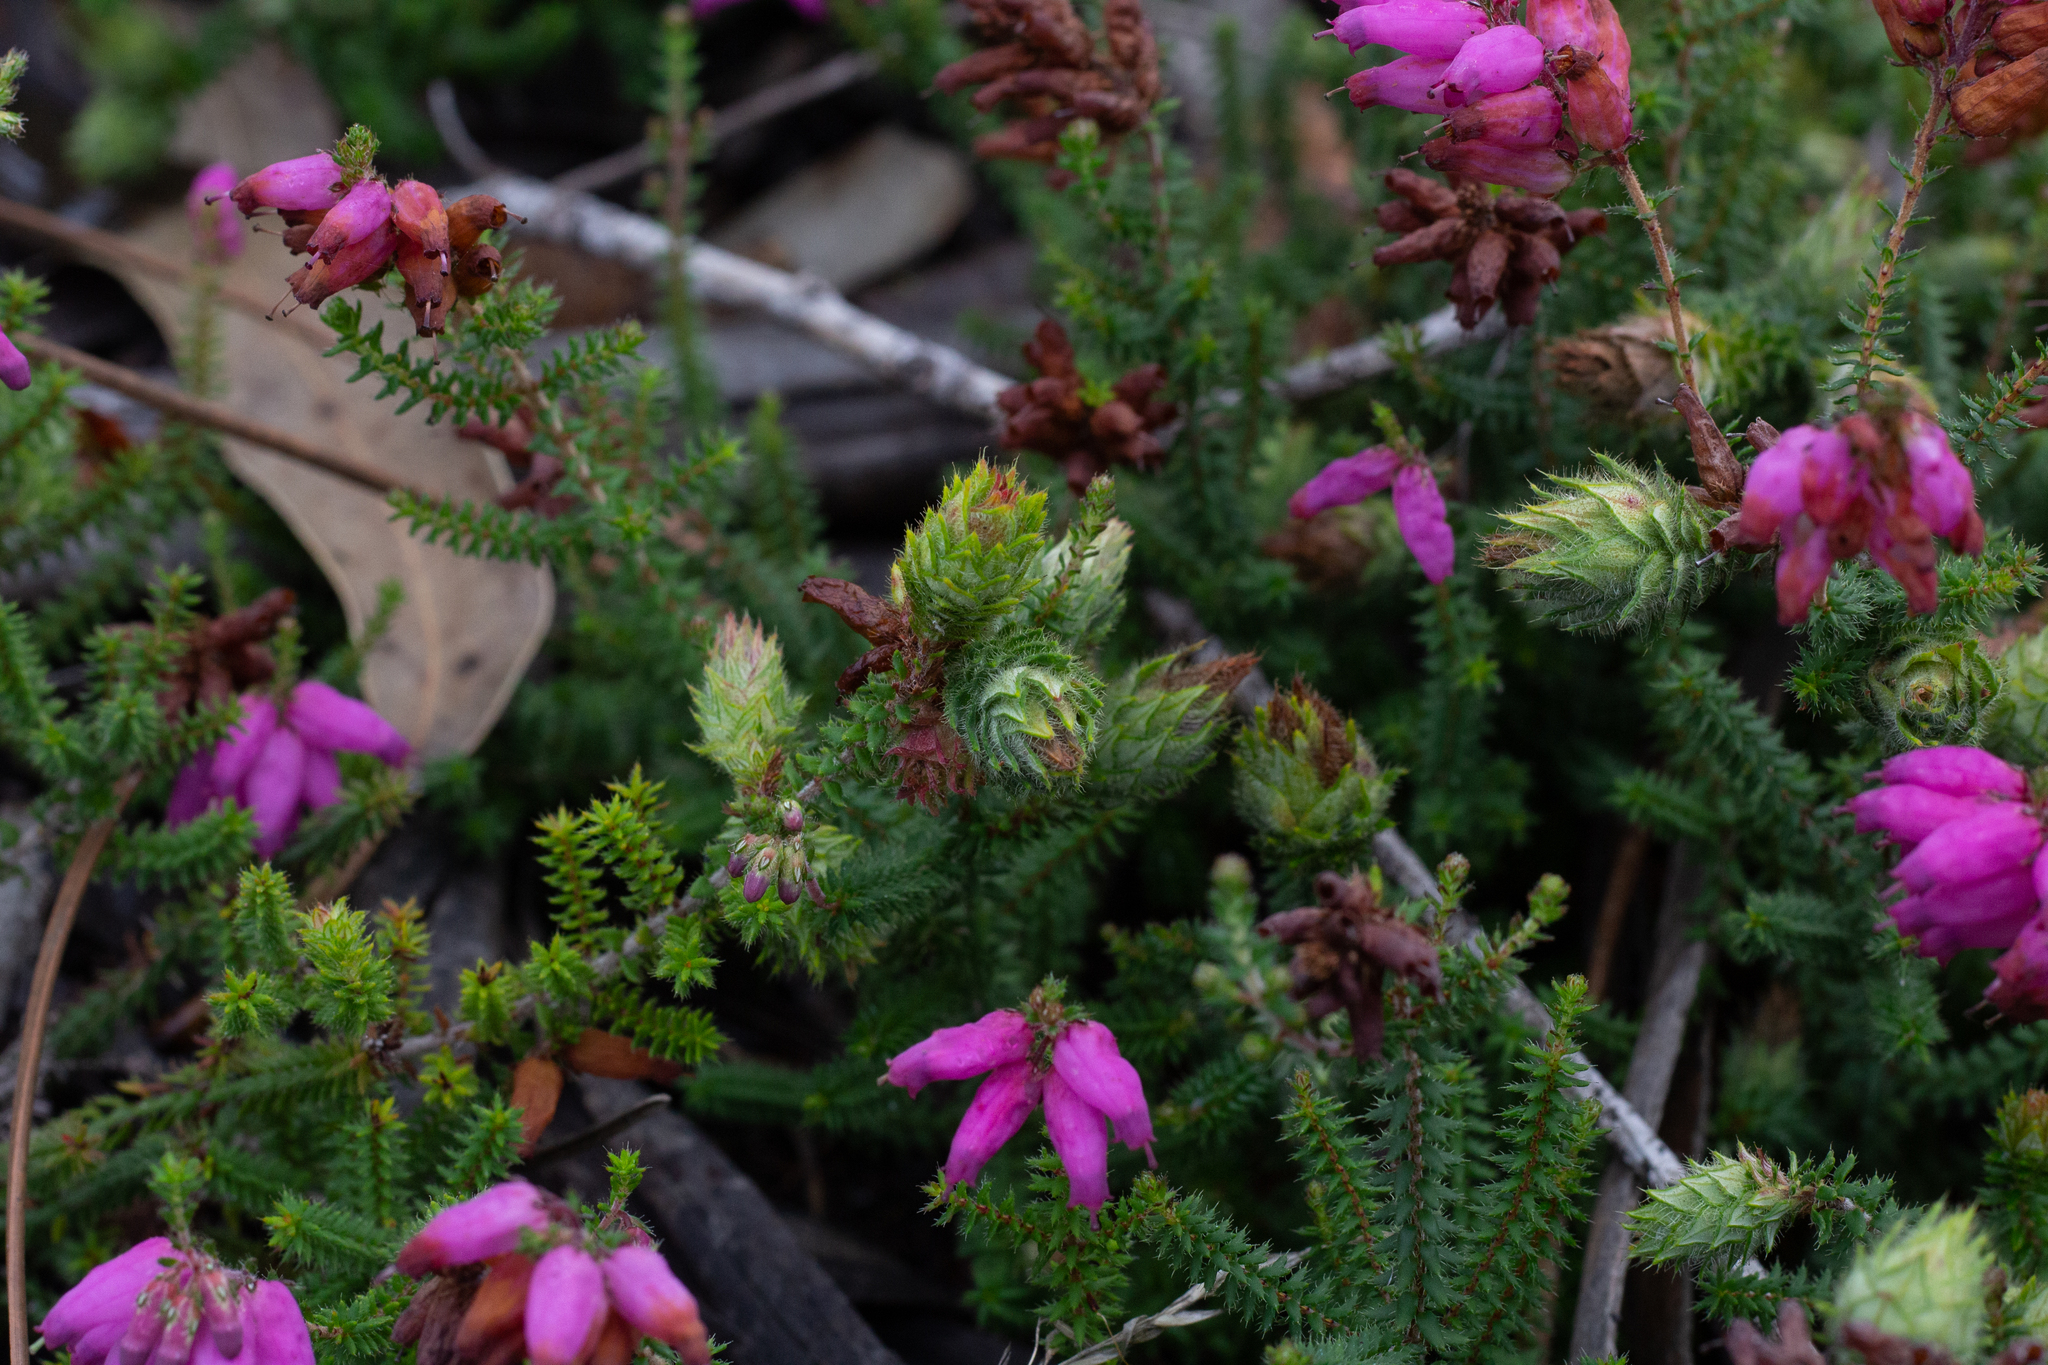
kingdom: Plantae
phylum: Tracheophyta
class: Magnoliopsida
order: Ericales
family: Ericaceae
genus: Erica
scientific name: Erica ciliaris
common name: Dorset heath
